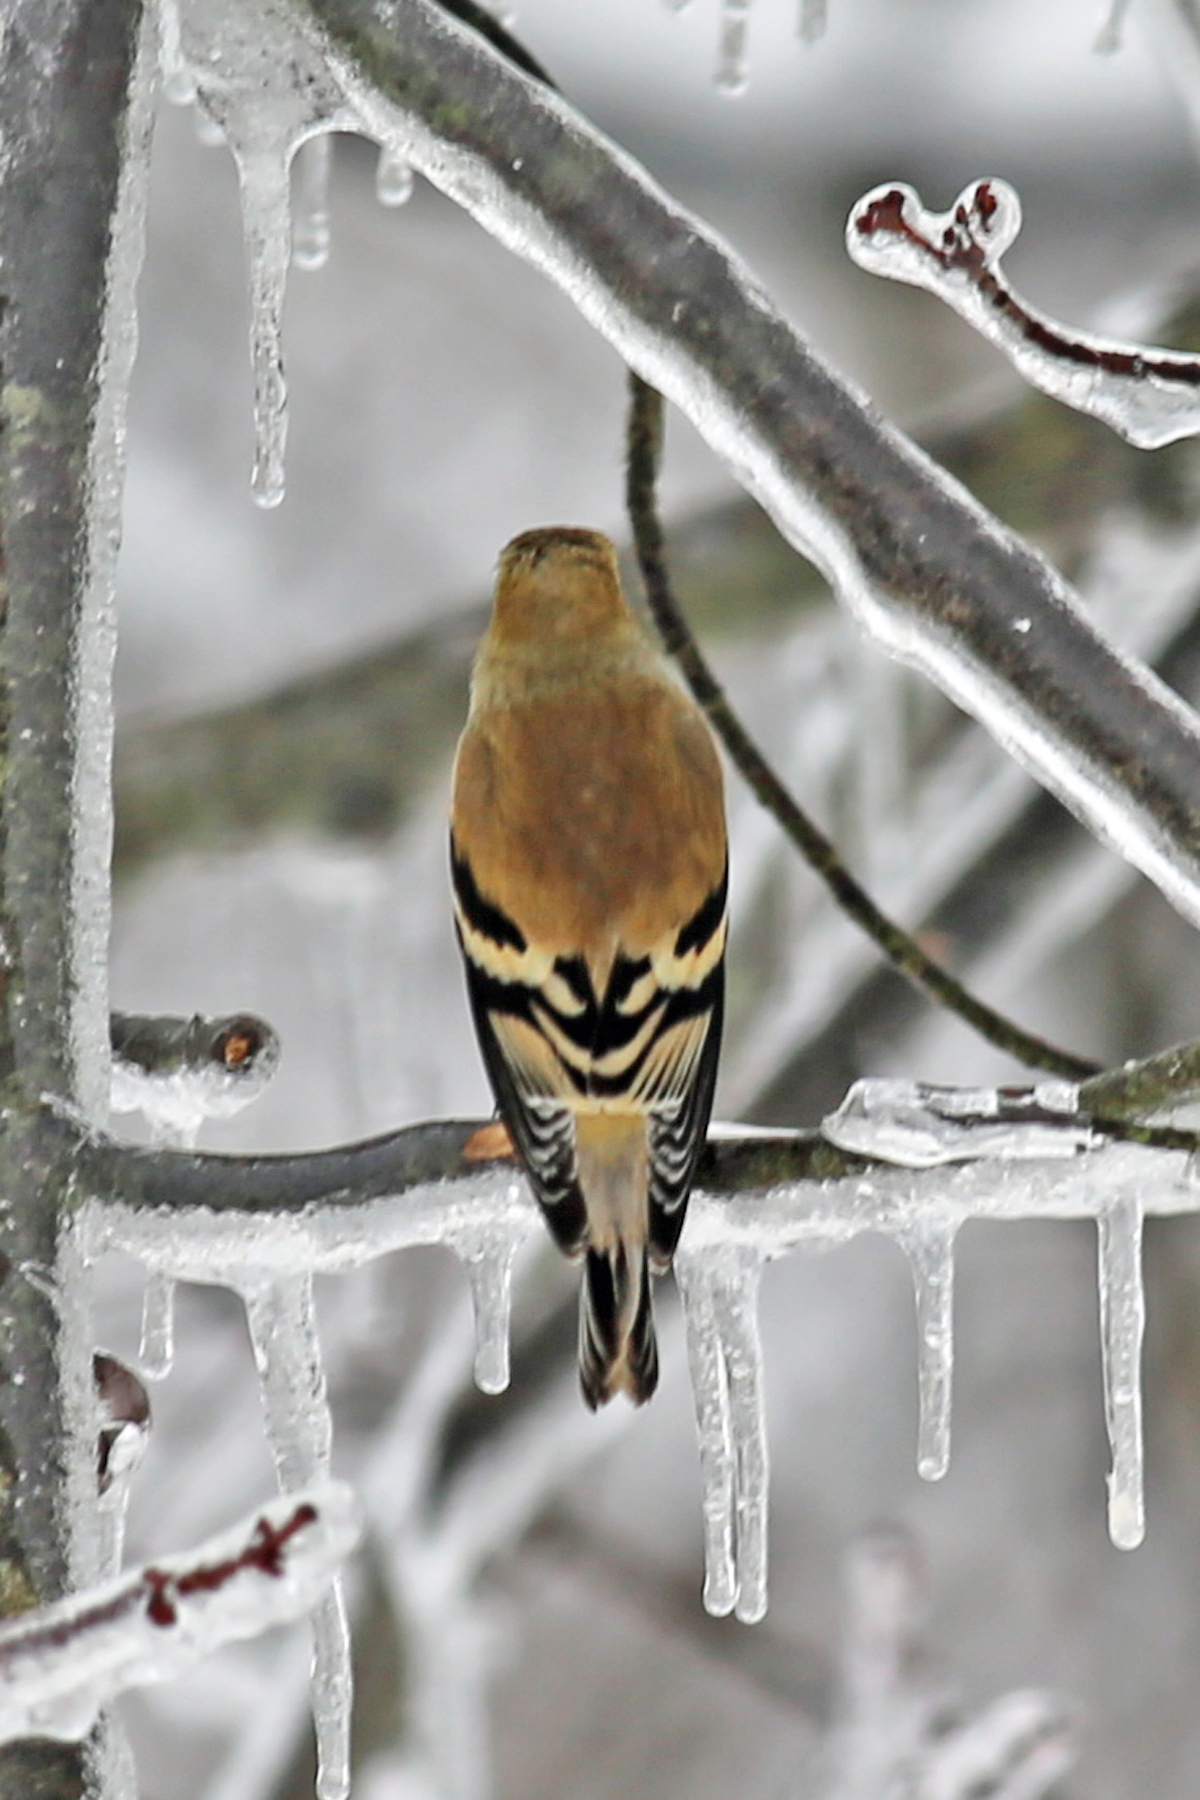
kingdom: Animalia
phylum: Chordata
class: Aves
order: Passeriformes
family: Fringillidae
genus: Spinus
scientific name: Spinus tristis
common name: American goldfinch
